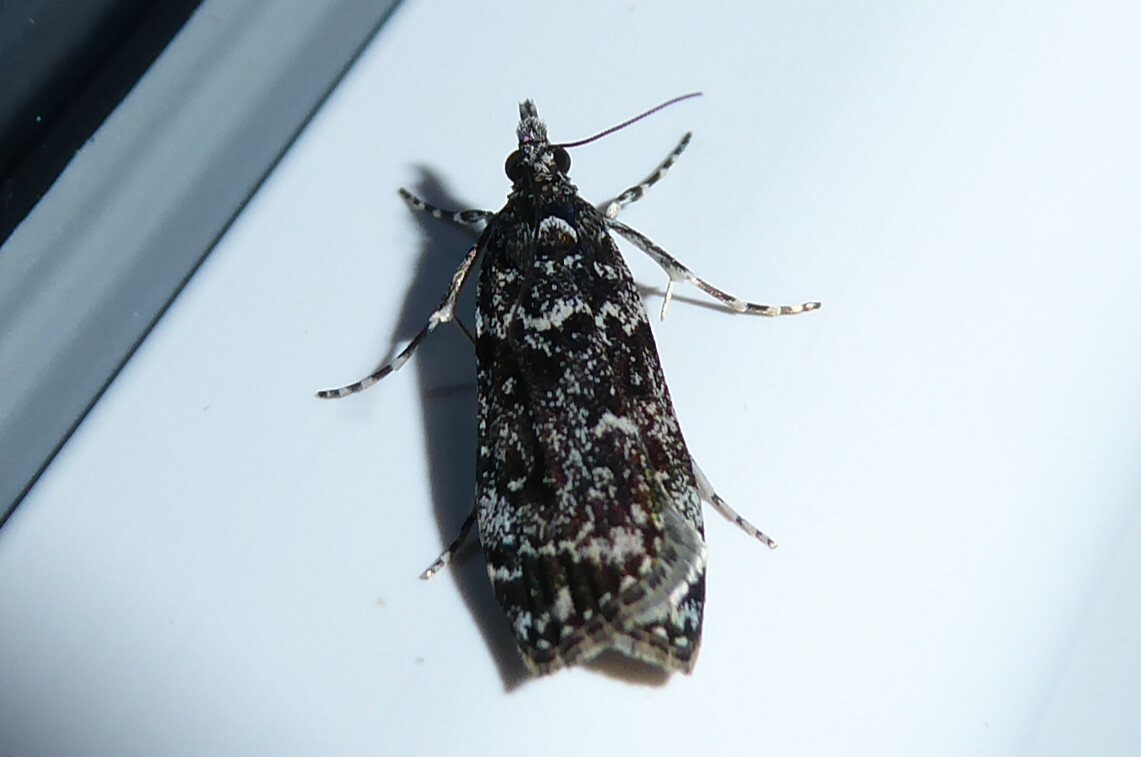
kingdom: Animalia
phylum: Arthropoda
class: Insecta
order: Lepidoptera
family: Crambidae
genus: Eudonia
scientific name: Eudonia philerga
